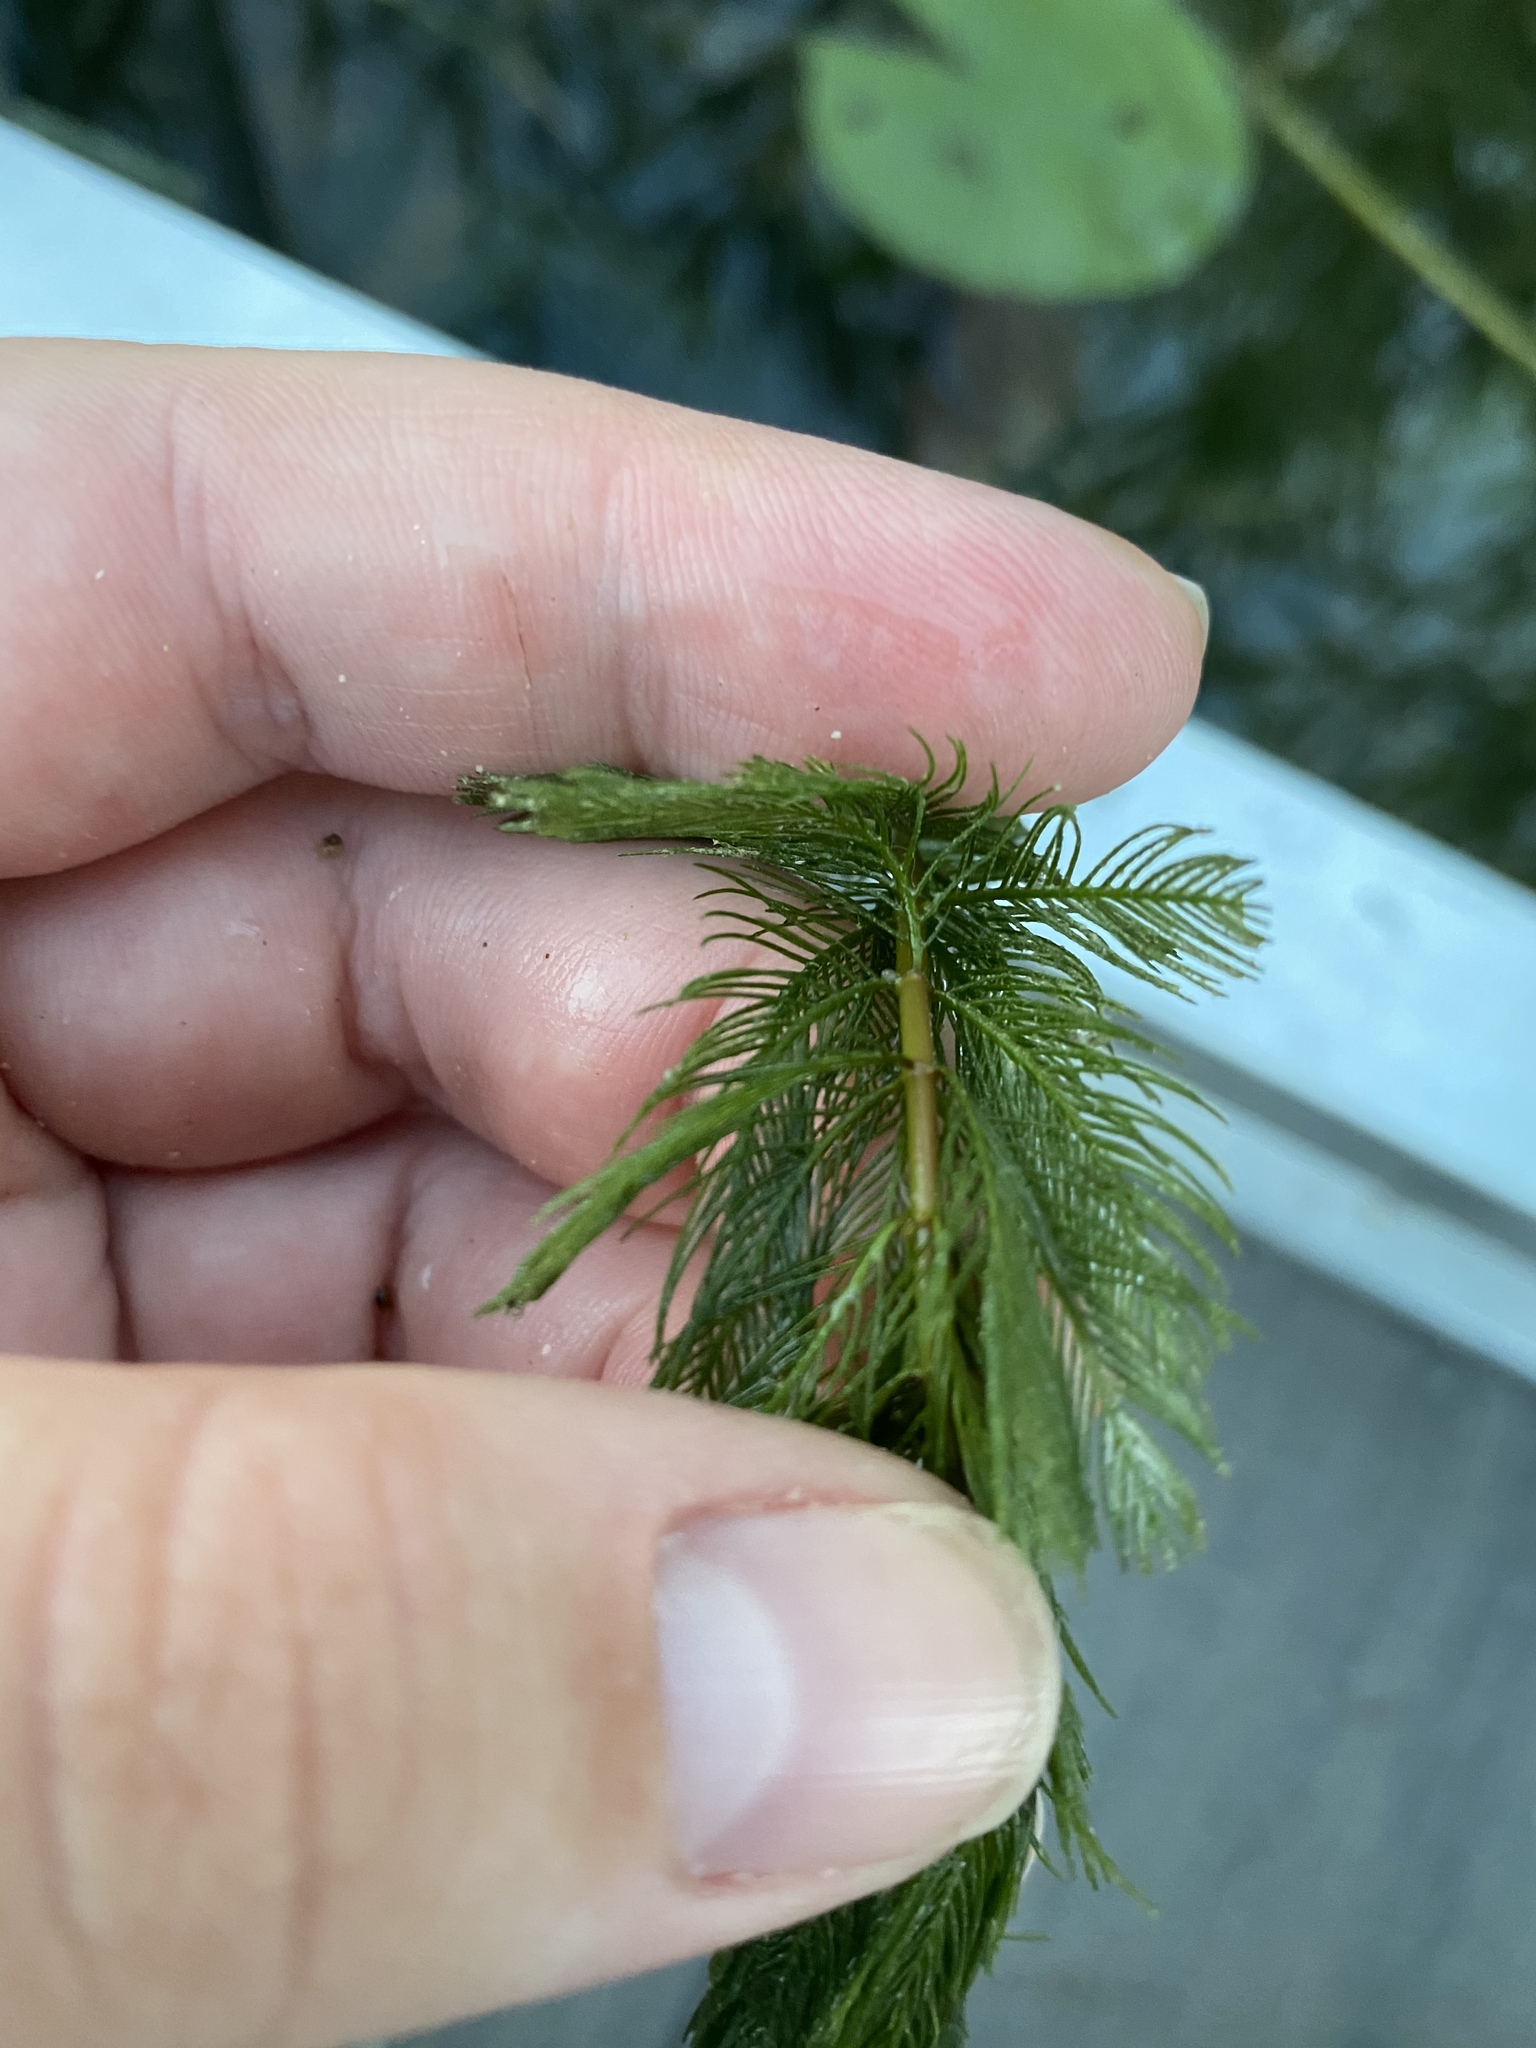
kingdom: Plantae
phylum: Tracheophyta
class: Magnoliopsida
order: Saxifragales
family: Haloragaceae
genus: Myriophyllum
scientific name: Myriophyllum spicatum
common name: Spiked water-milfoil
